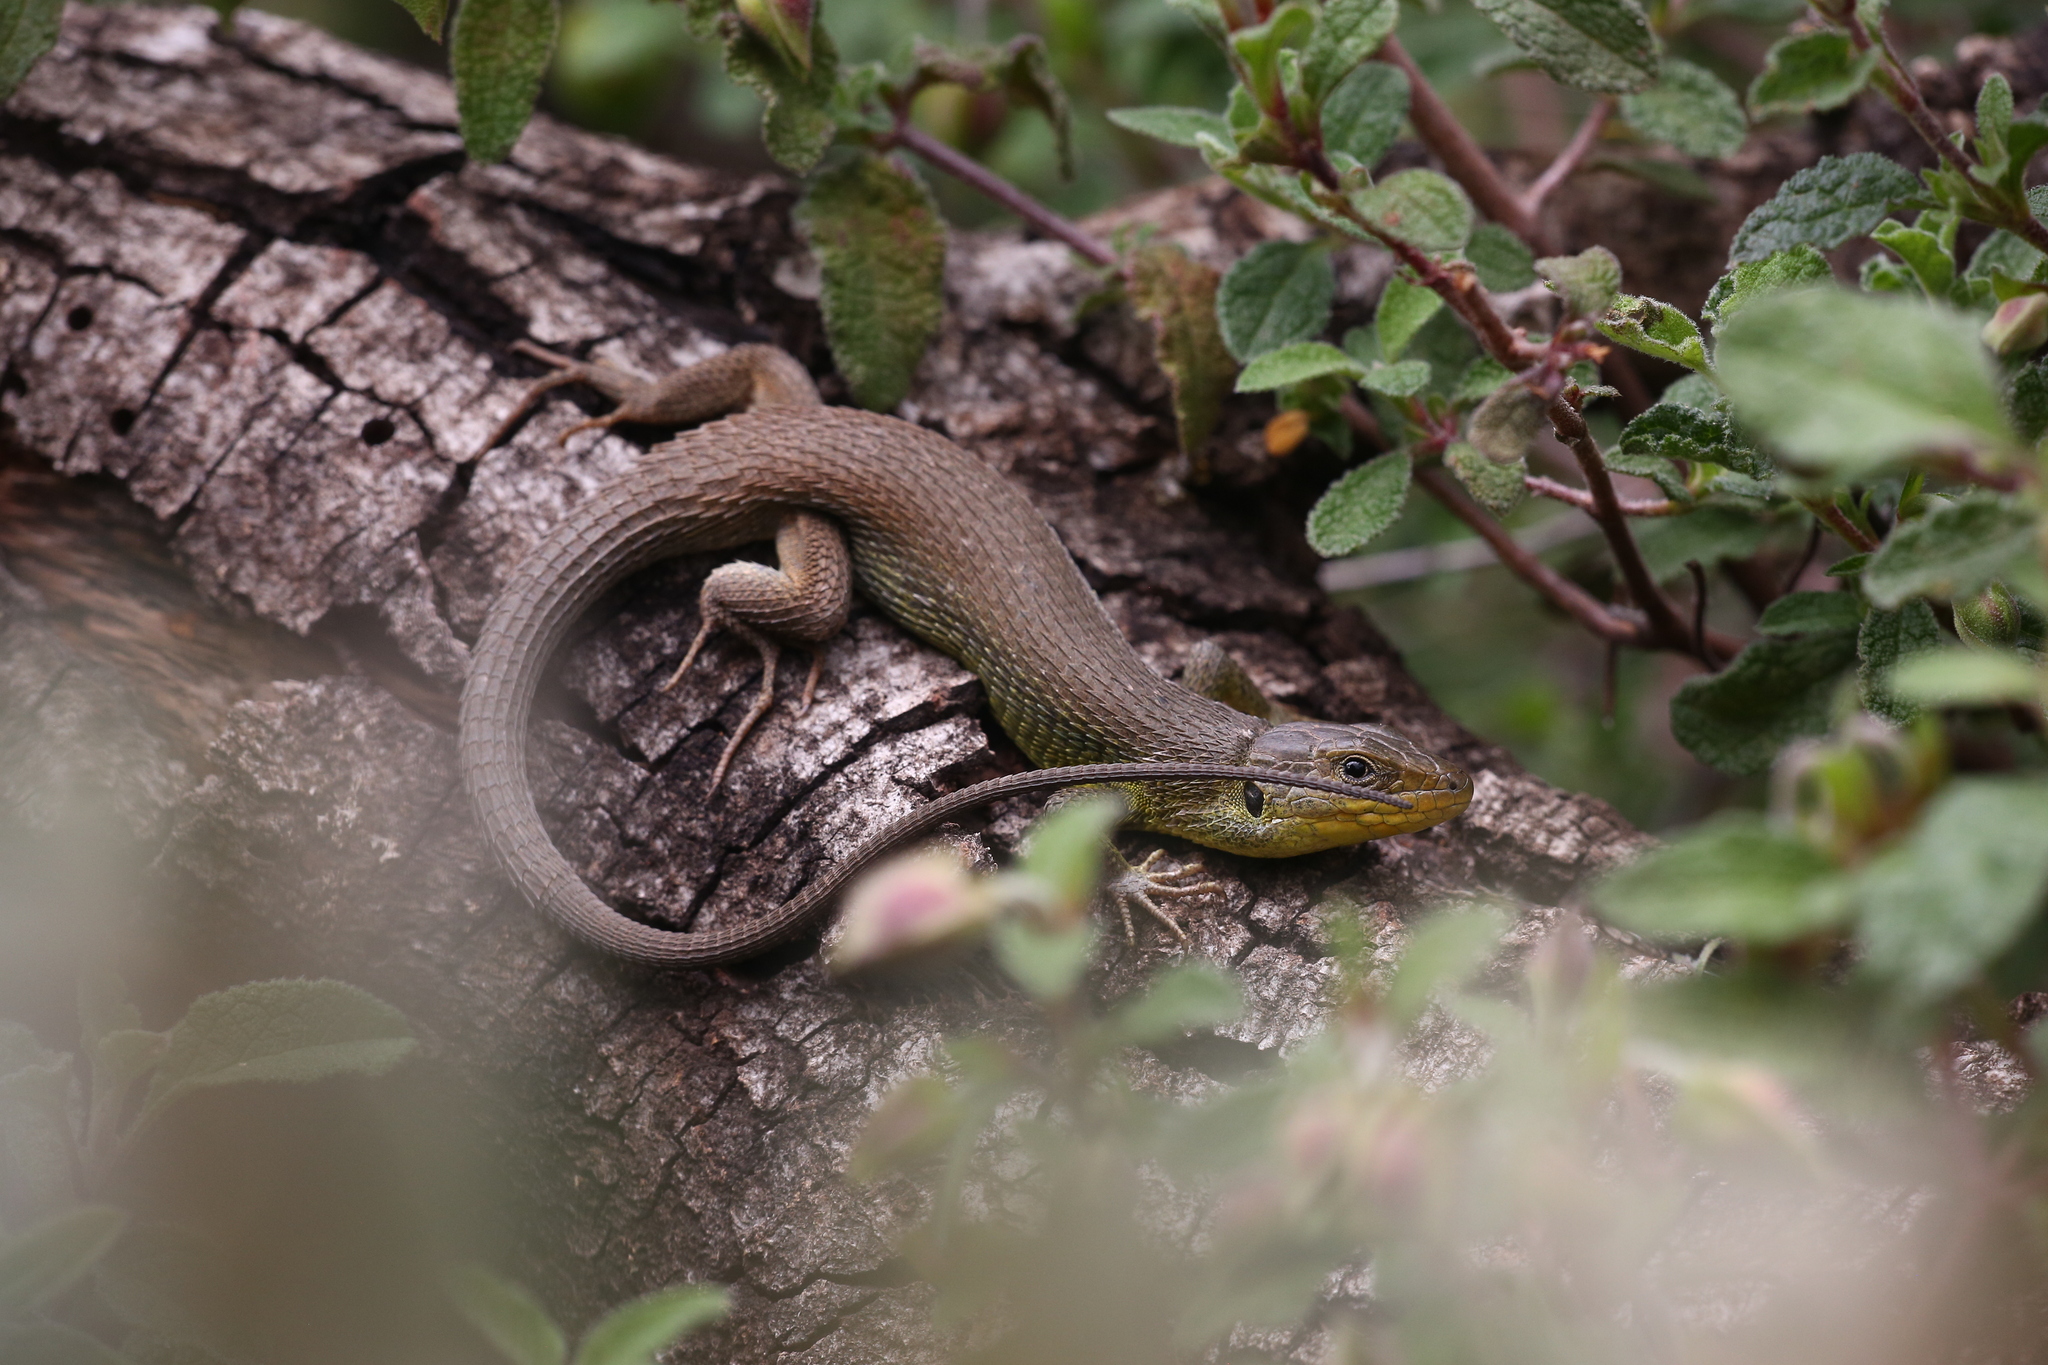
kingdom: Animalia
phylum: Chordata
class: Squamata
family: Lacertidae
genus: Psammodromus
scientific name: Psammodromus algirus
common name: Algerian psammodromus
